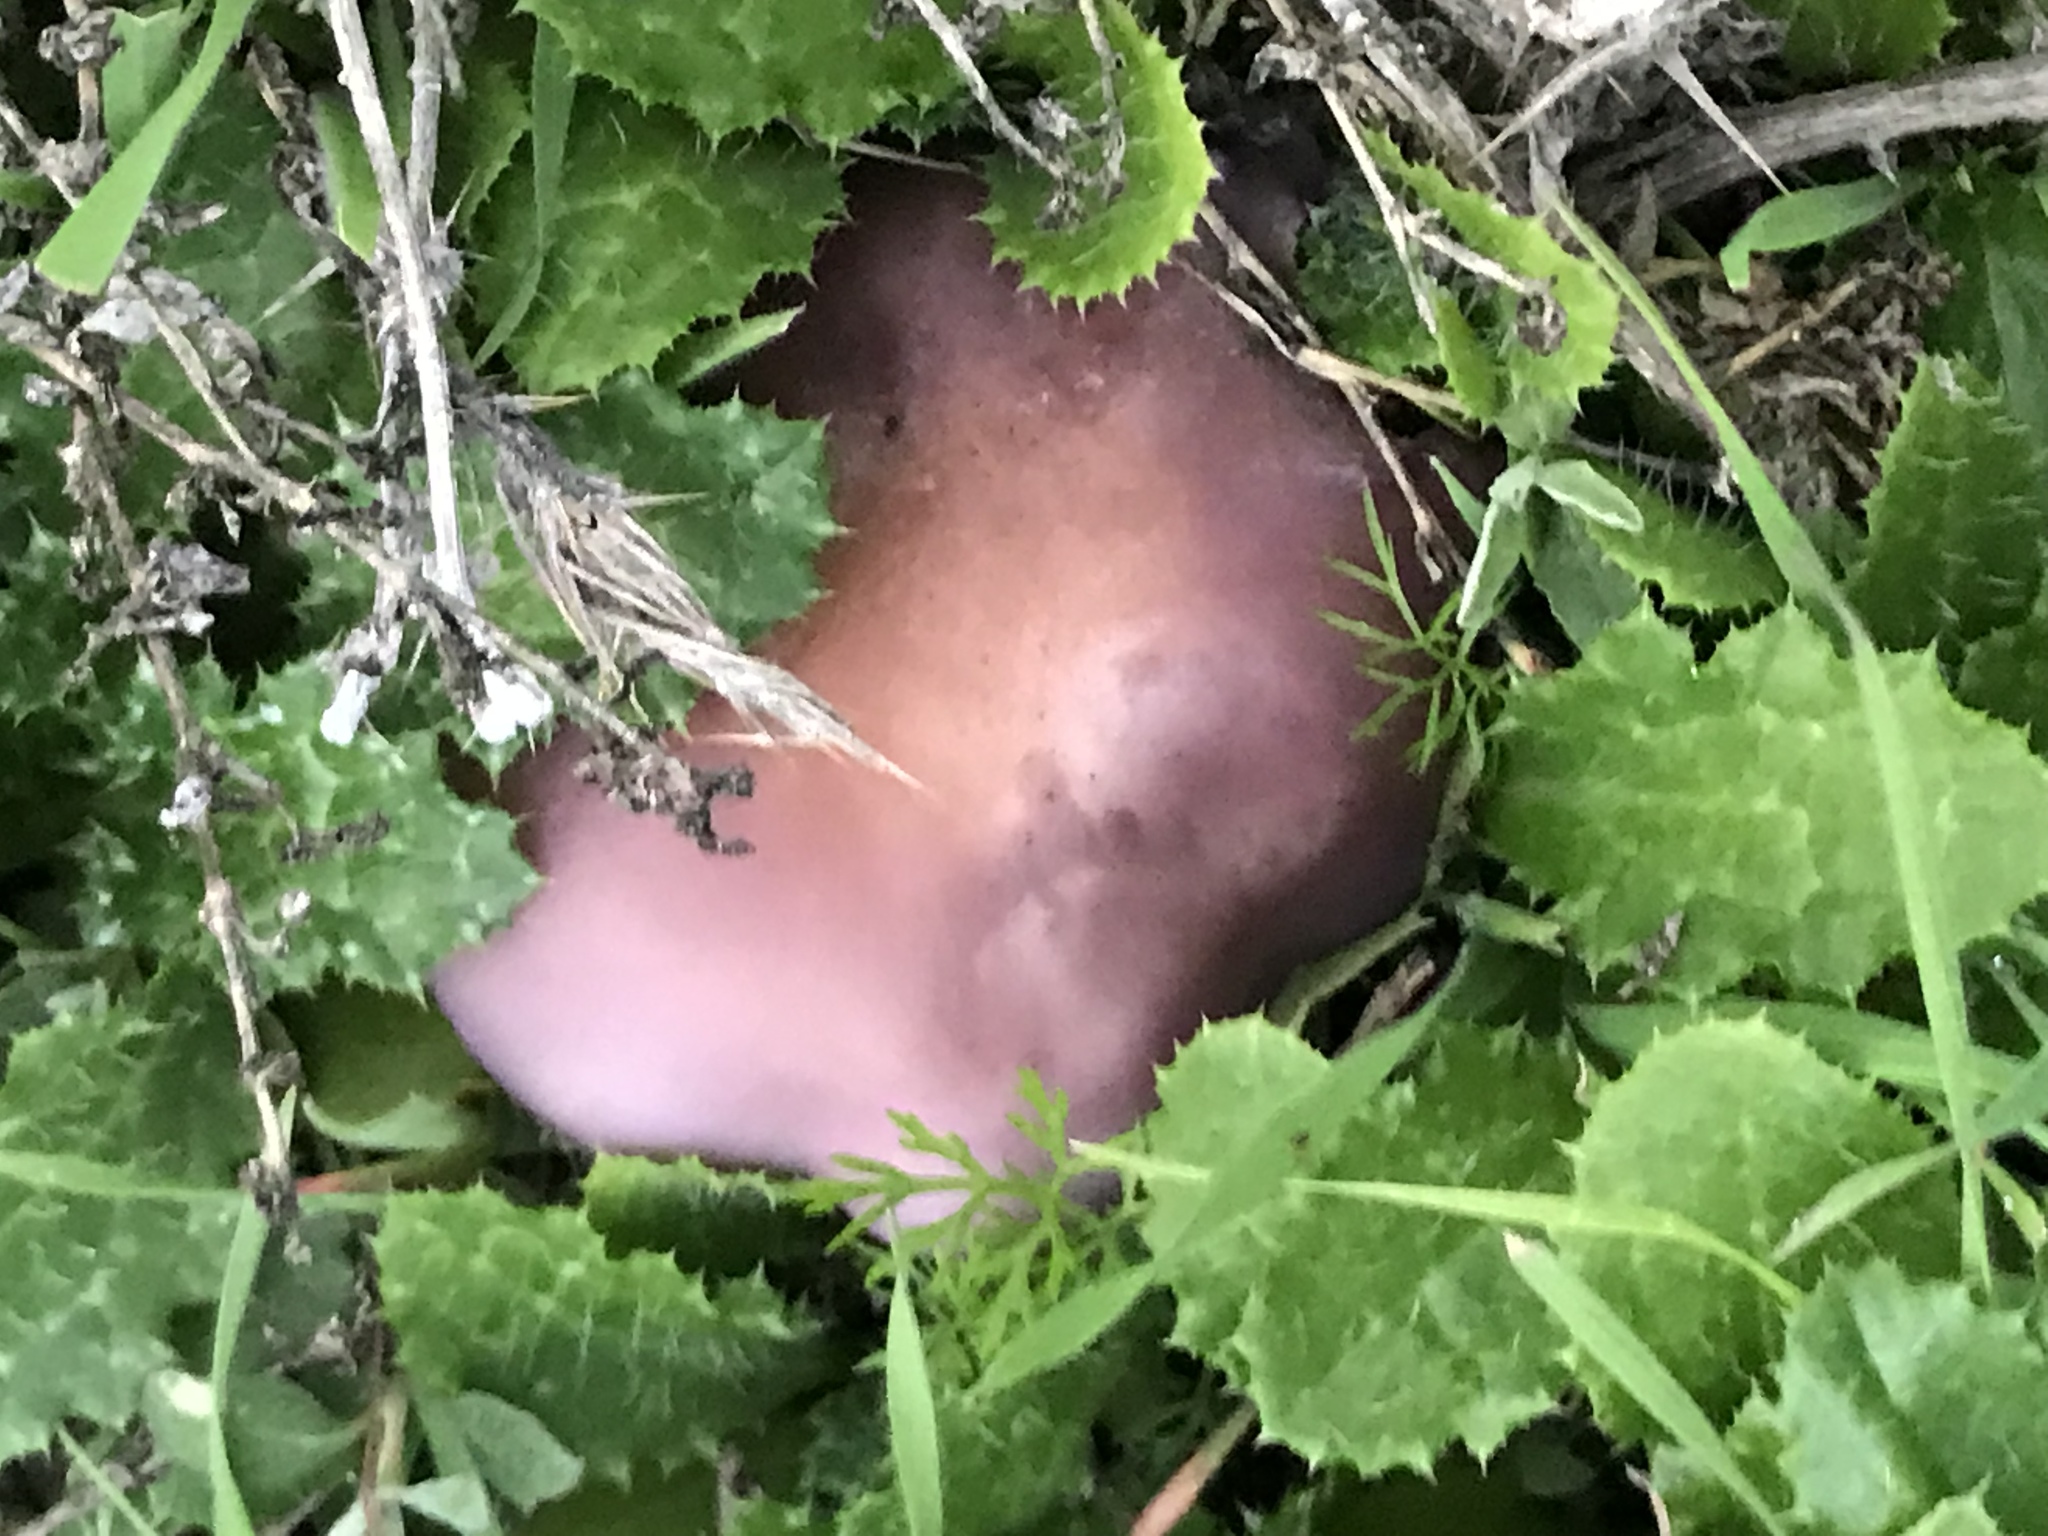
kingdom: Fungi
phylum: Basidiomycota
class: Agaricomycetes
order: Agaricales
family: Tricholomataceae
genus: Collybia
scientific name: Collybia
